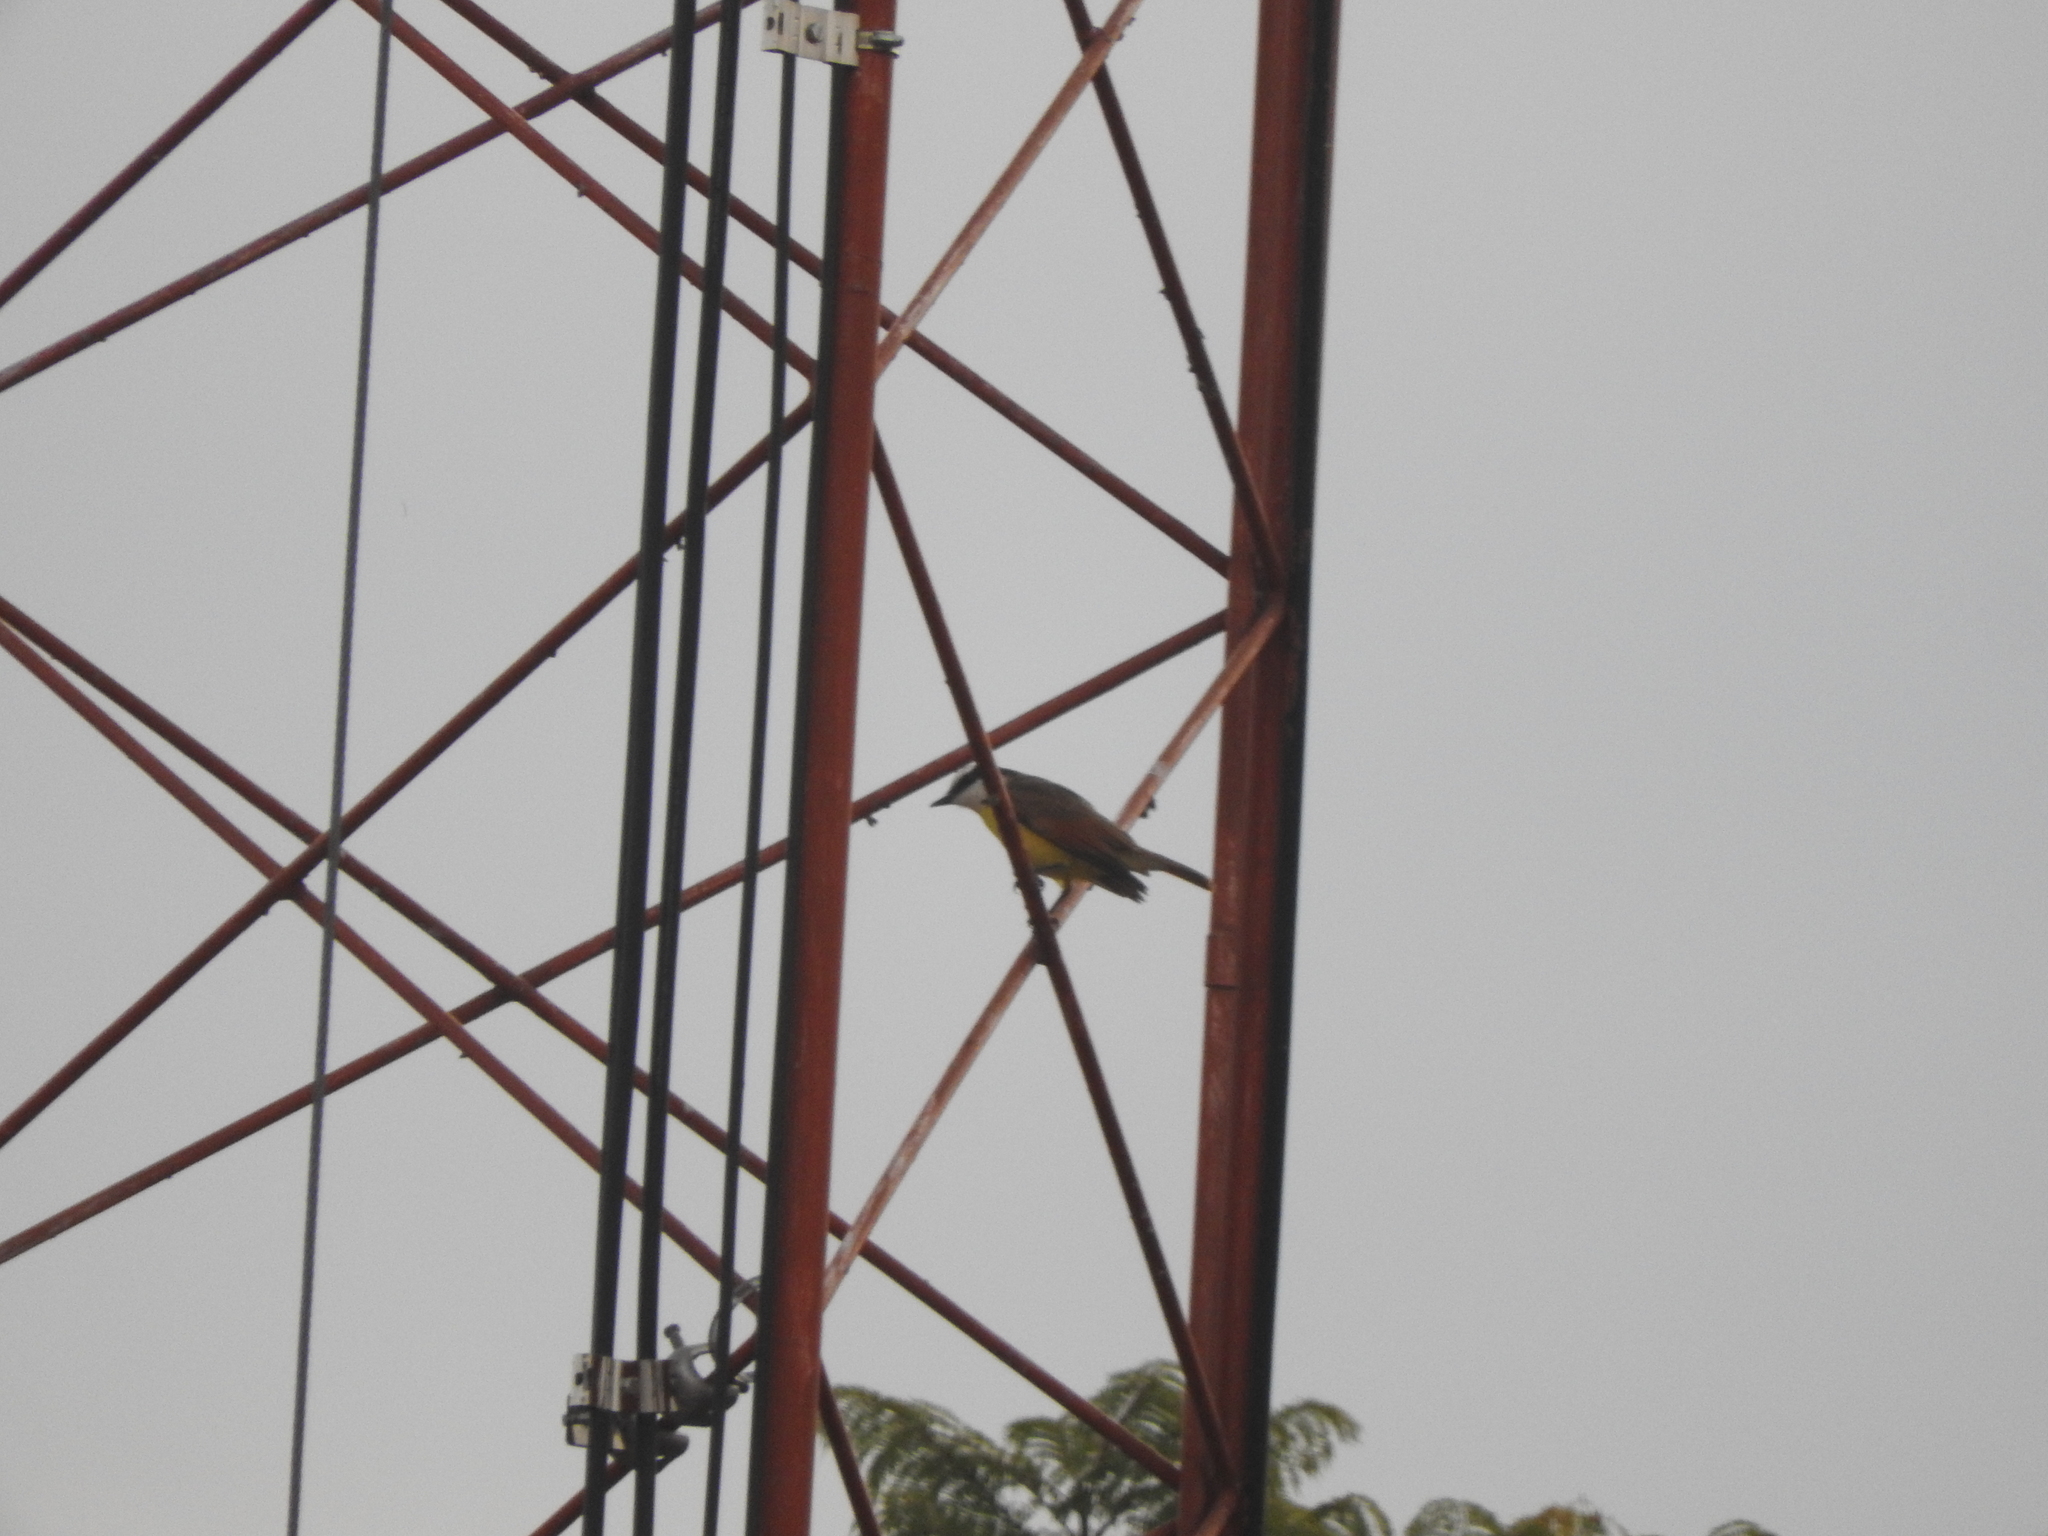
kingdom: Animalia
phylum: Chordata
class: Aves
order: Passeriformes
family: Tyrannidae
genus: Pitangus
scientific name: Pitangus sulphuratus
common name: Great kiskadee
